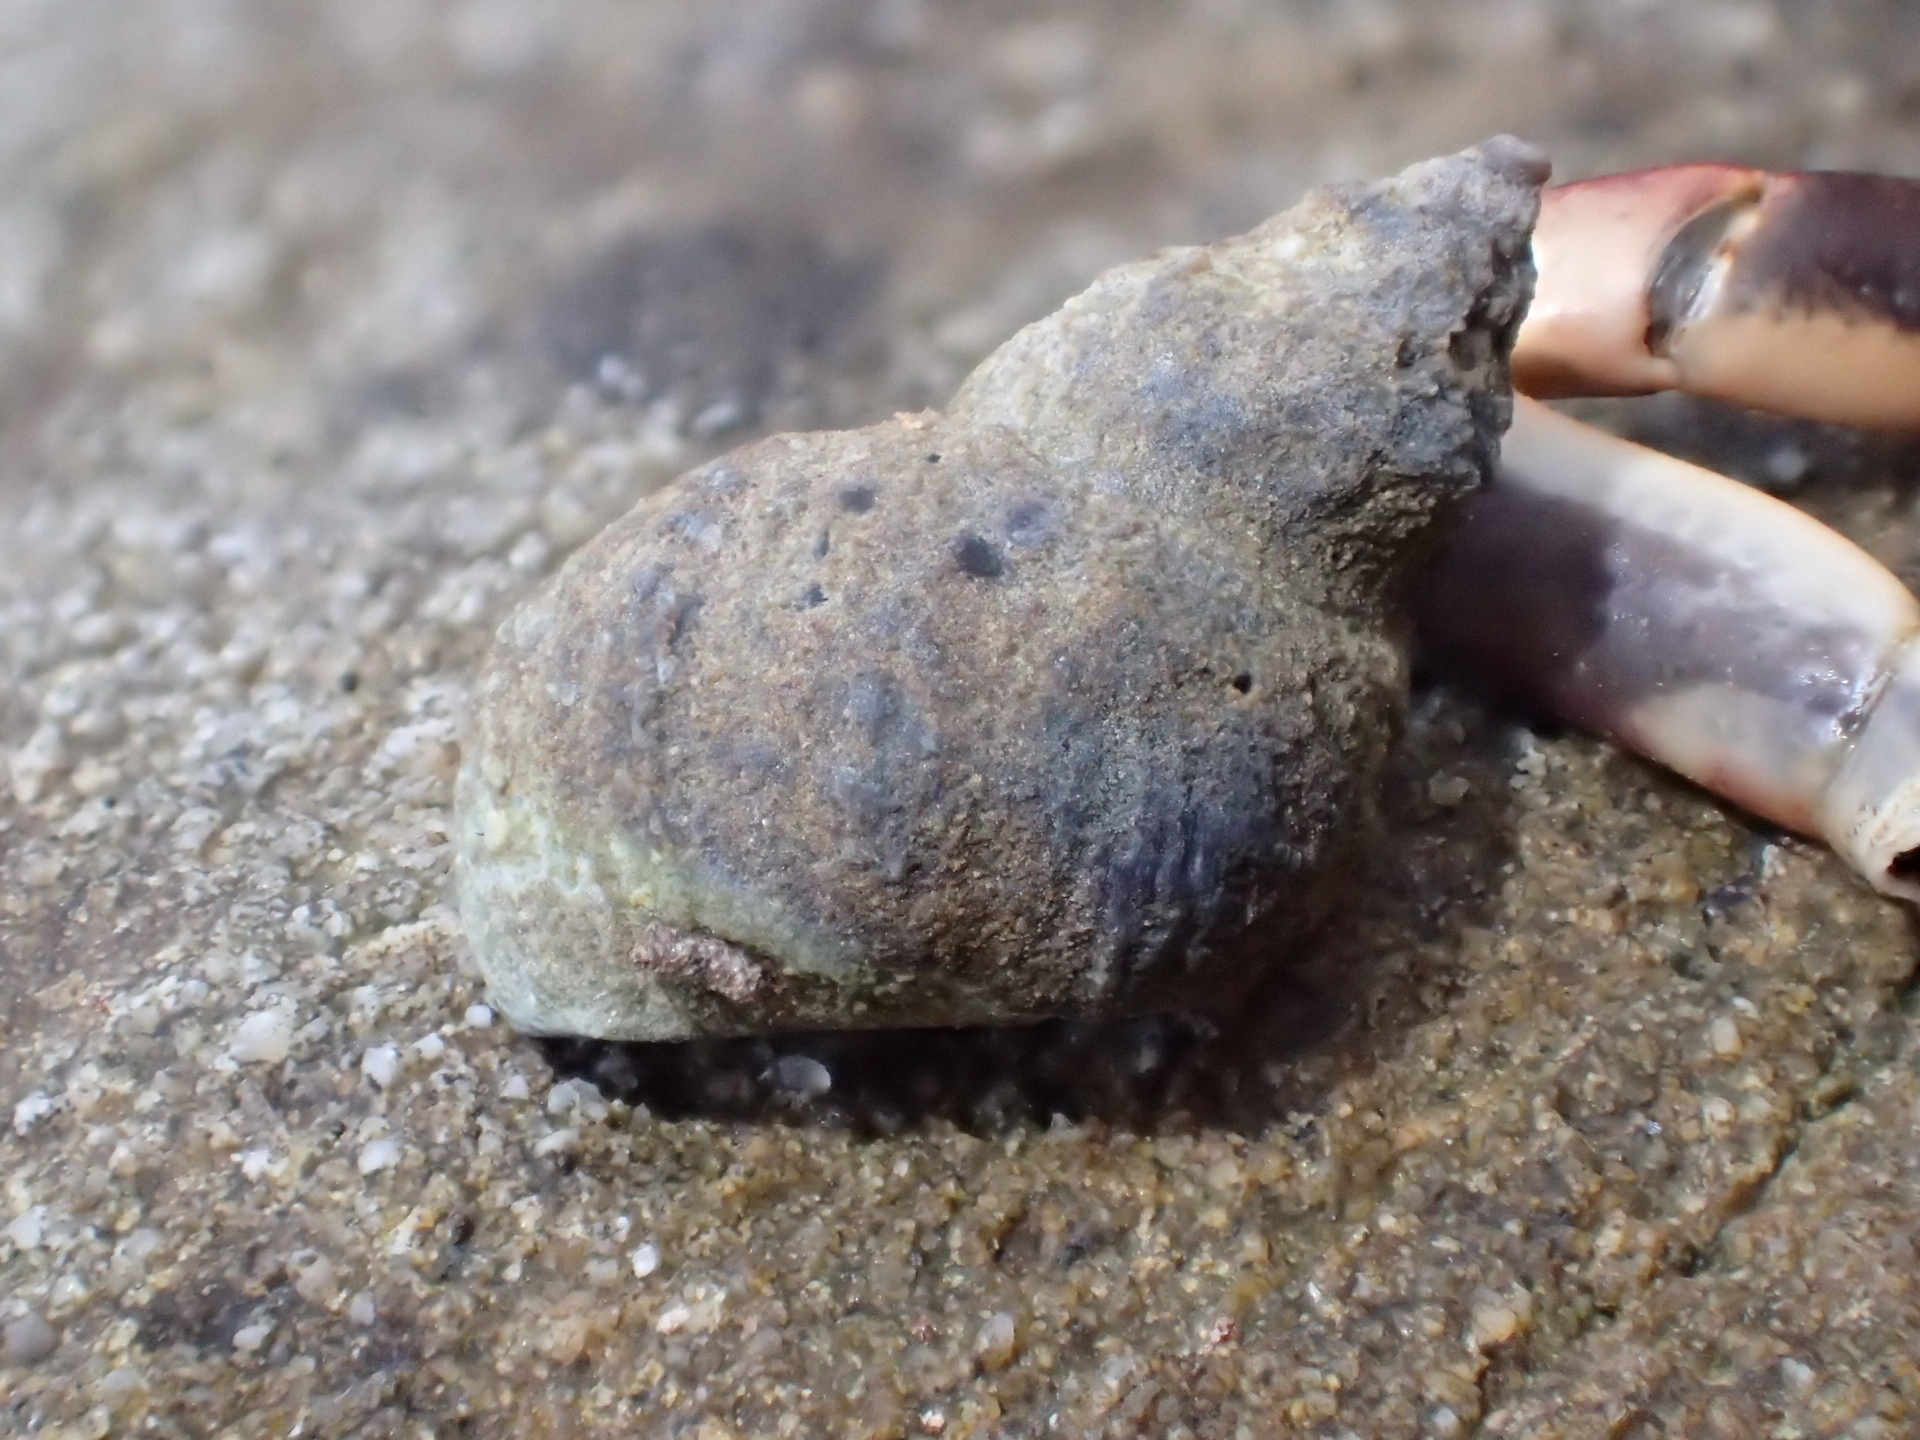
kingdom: Animalia
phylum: Mollusca
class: Gastropoda
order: Littorinimorpha
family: Littorinidae
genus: Austrolittorina
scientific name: Austrolittorina cincta
